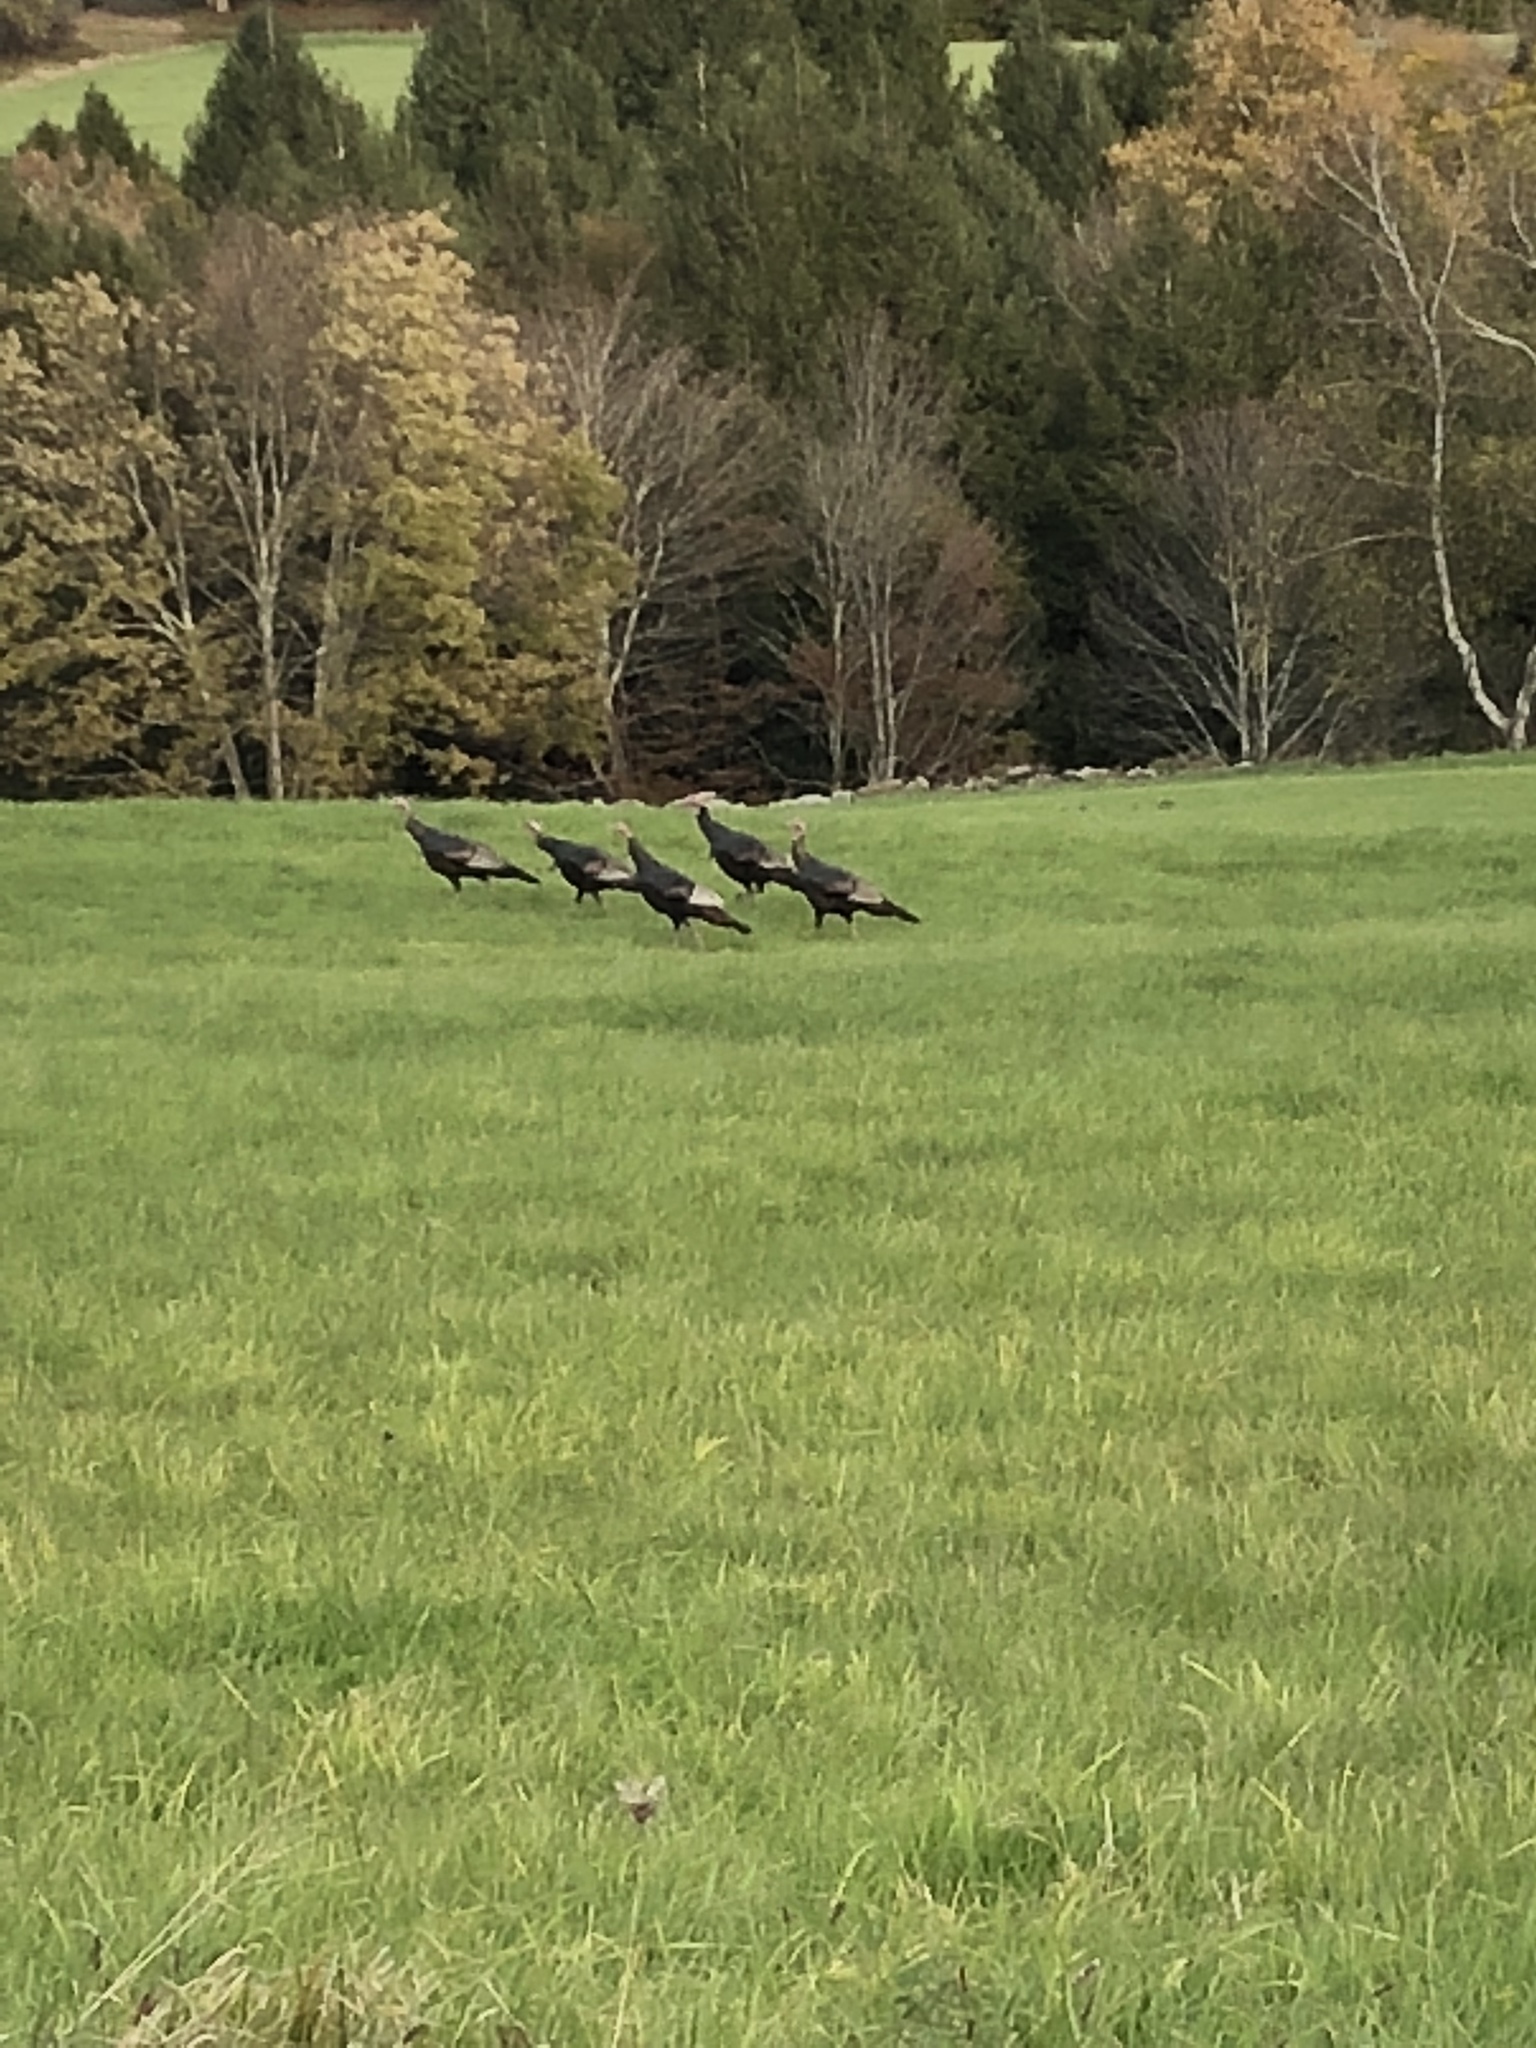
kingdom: Animalia
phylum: Chordata
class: Aves
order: Galliformes
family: Phasianidae
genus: Meleagris
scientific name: Meleagris gallopavo
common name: Wild turkey
